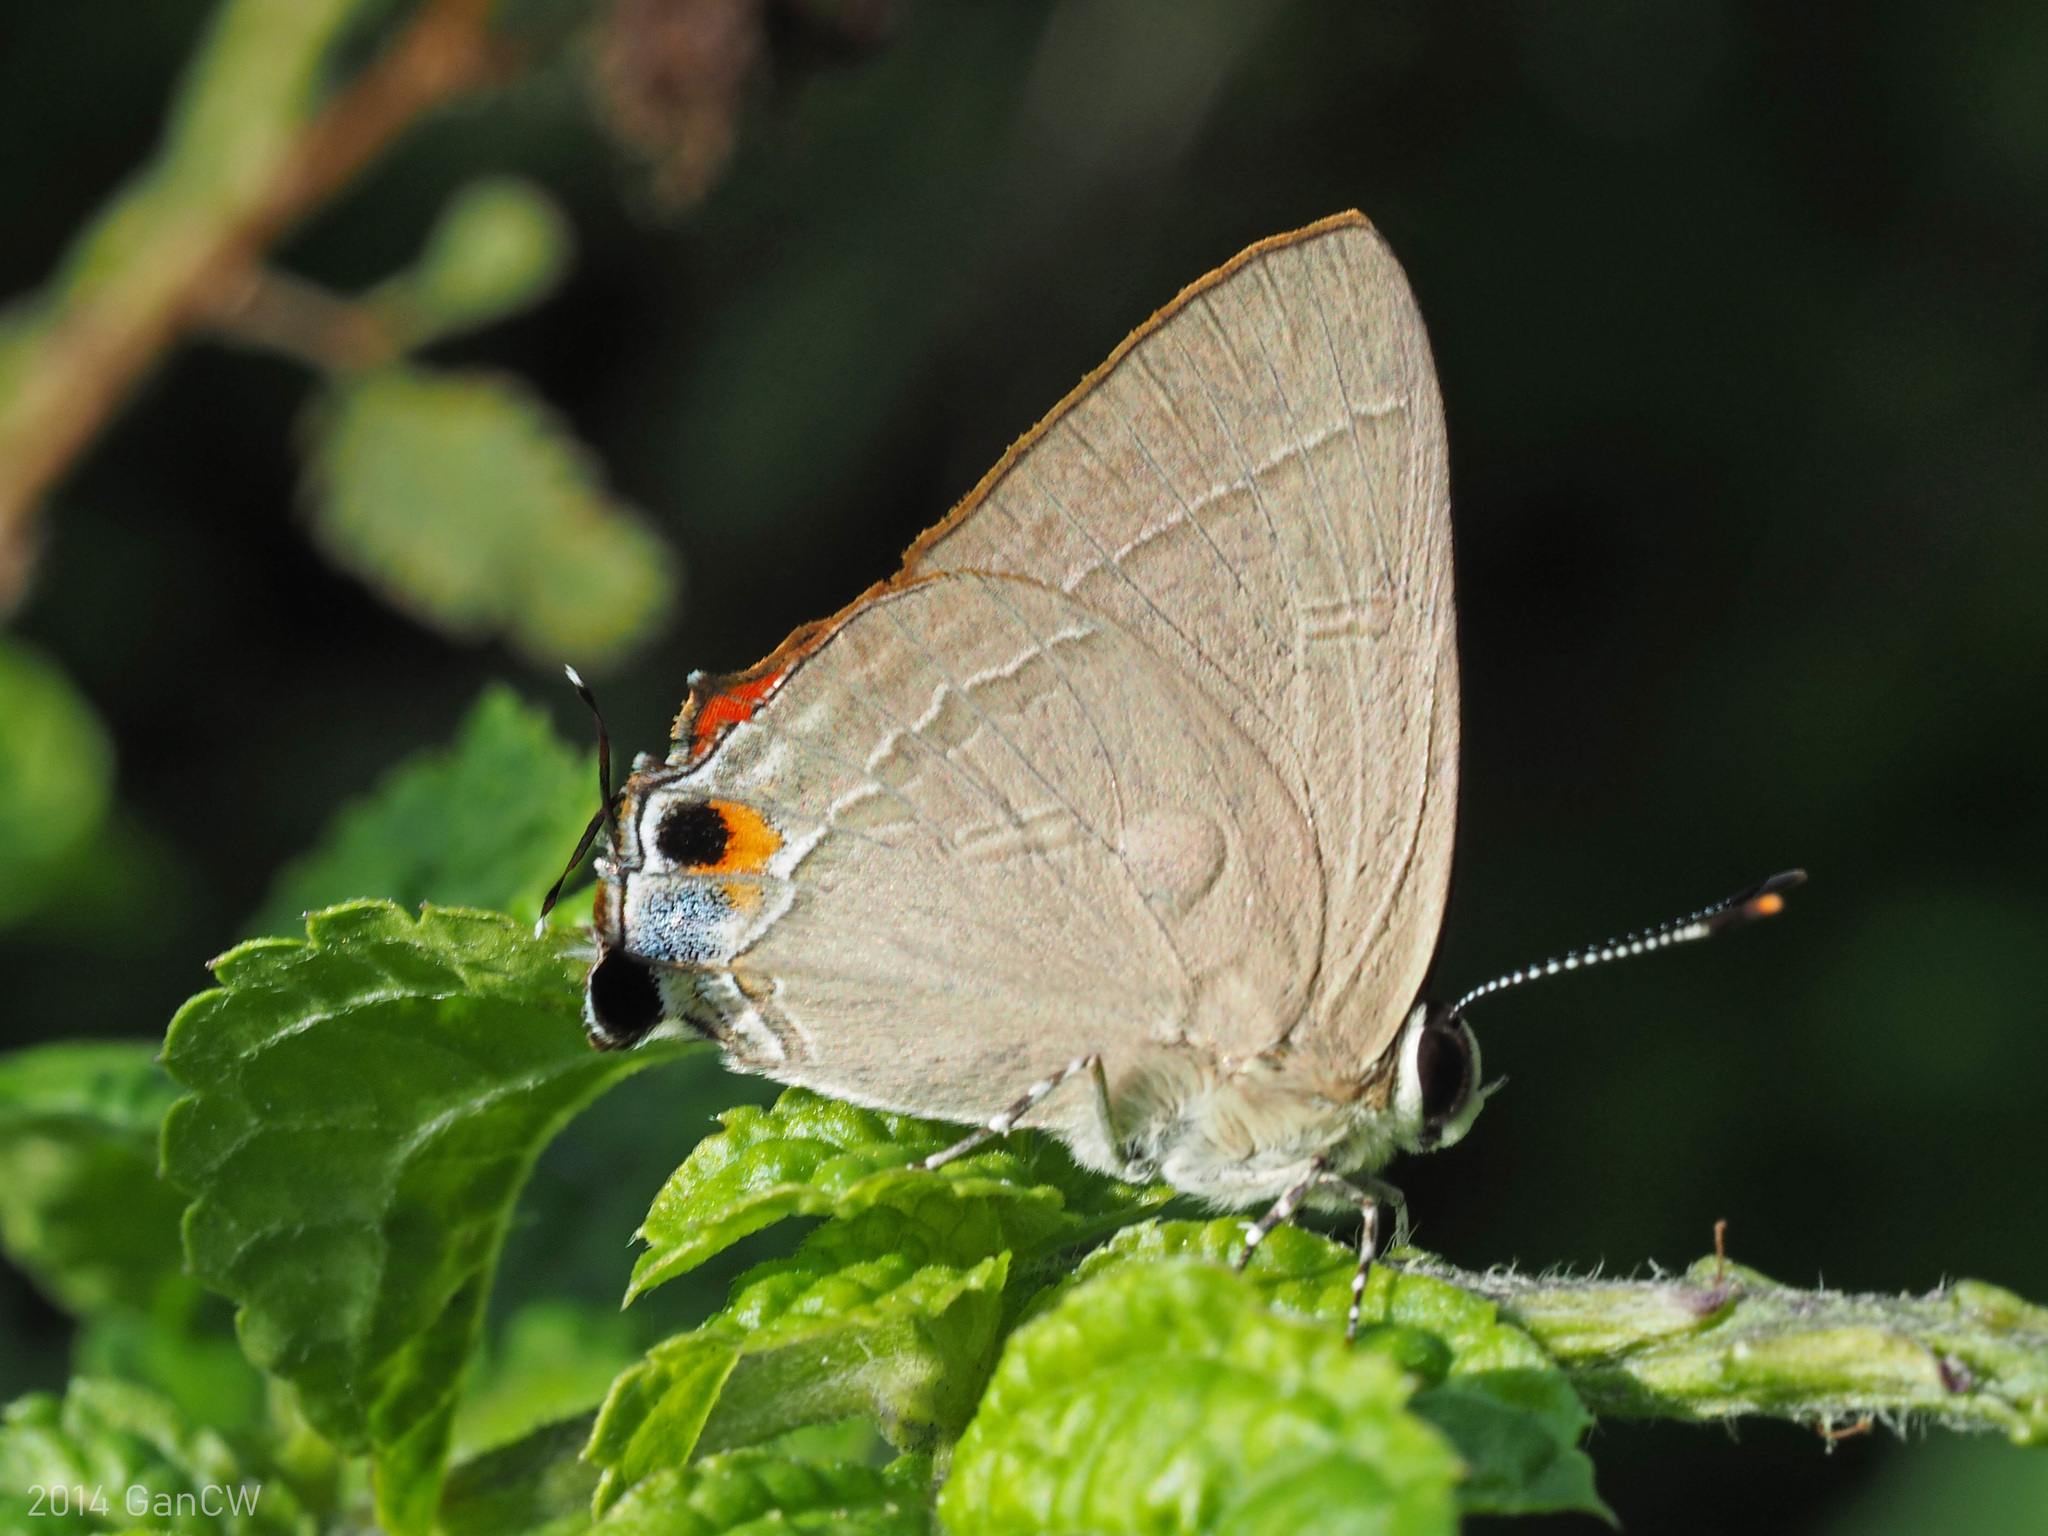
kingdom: Animalia
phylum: Arthropoda
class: Insecta
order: Lepidoptera
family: Lycaenidae
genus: Rapala
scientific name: Rapala iarbus
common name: Common red flash
